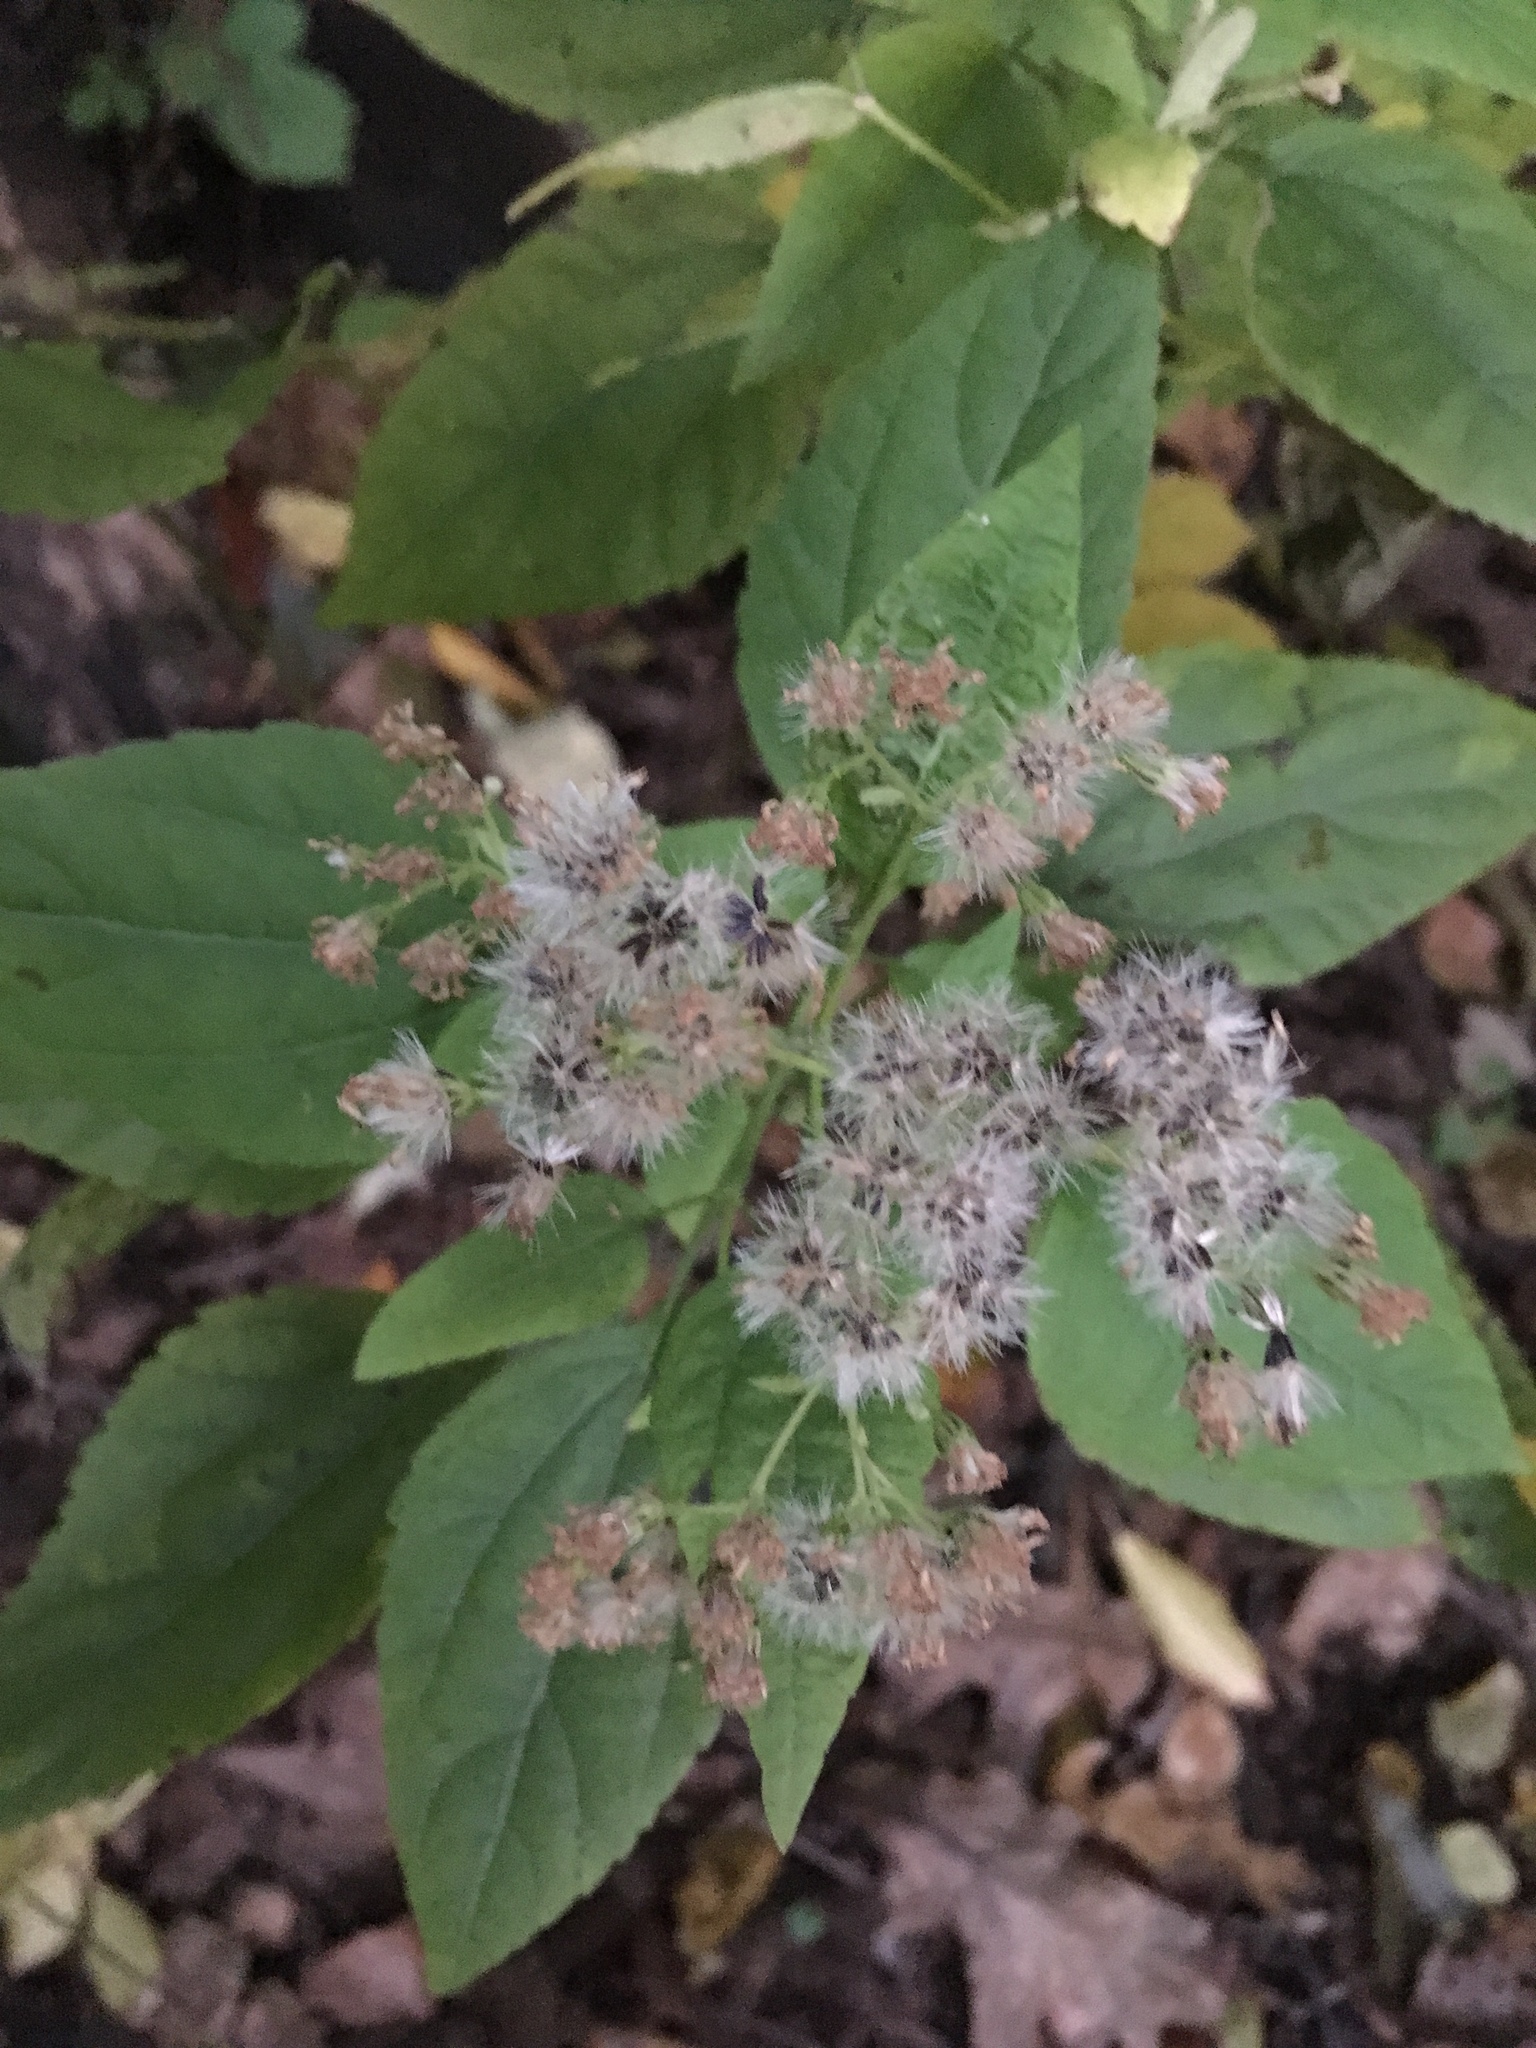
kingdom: Plantae
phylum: Tracheophyta
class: Magnoliopsida
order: Asterales
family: Asteraceae
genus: Ageratina
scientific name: Ageratina altissima
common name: White snakeroot
